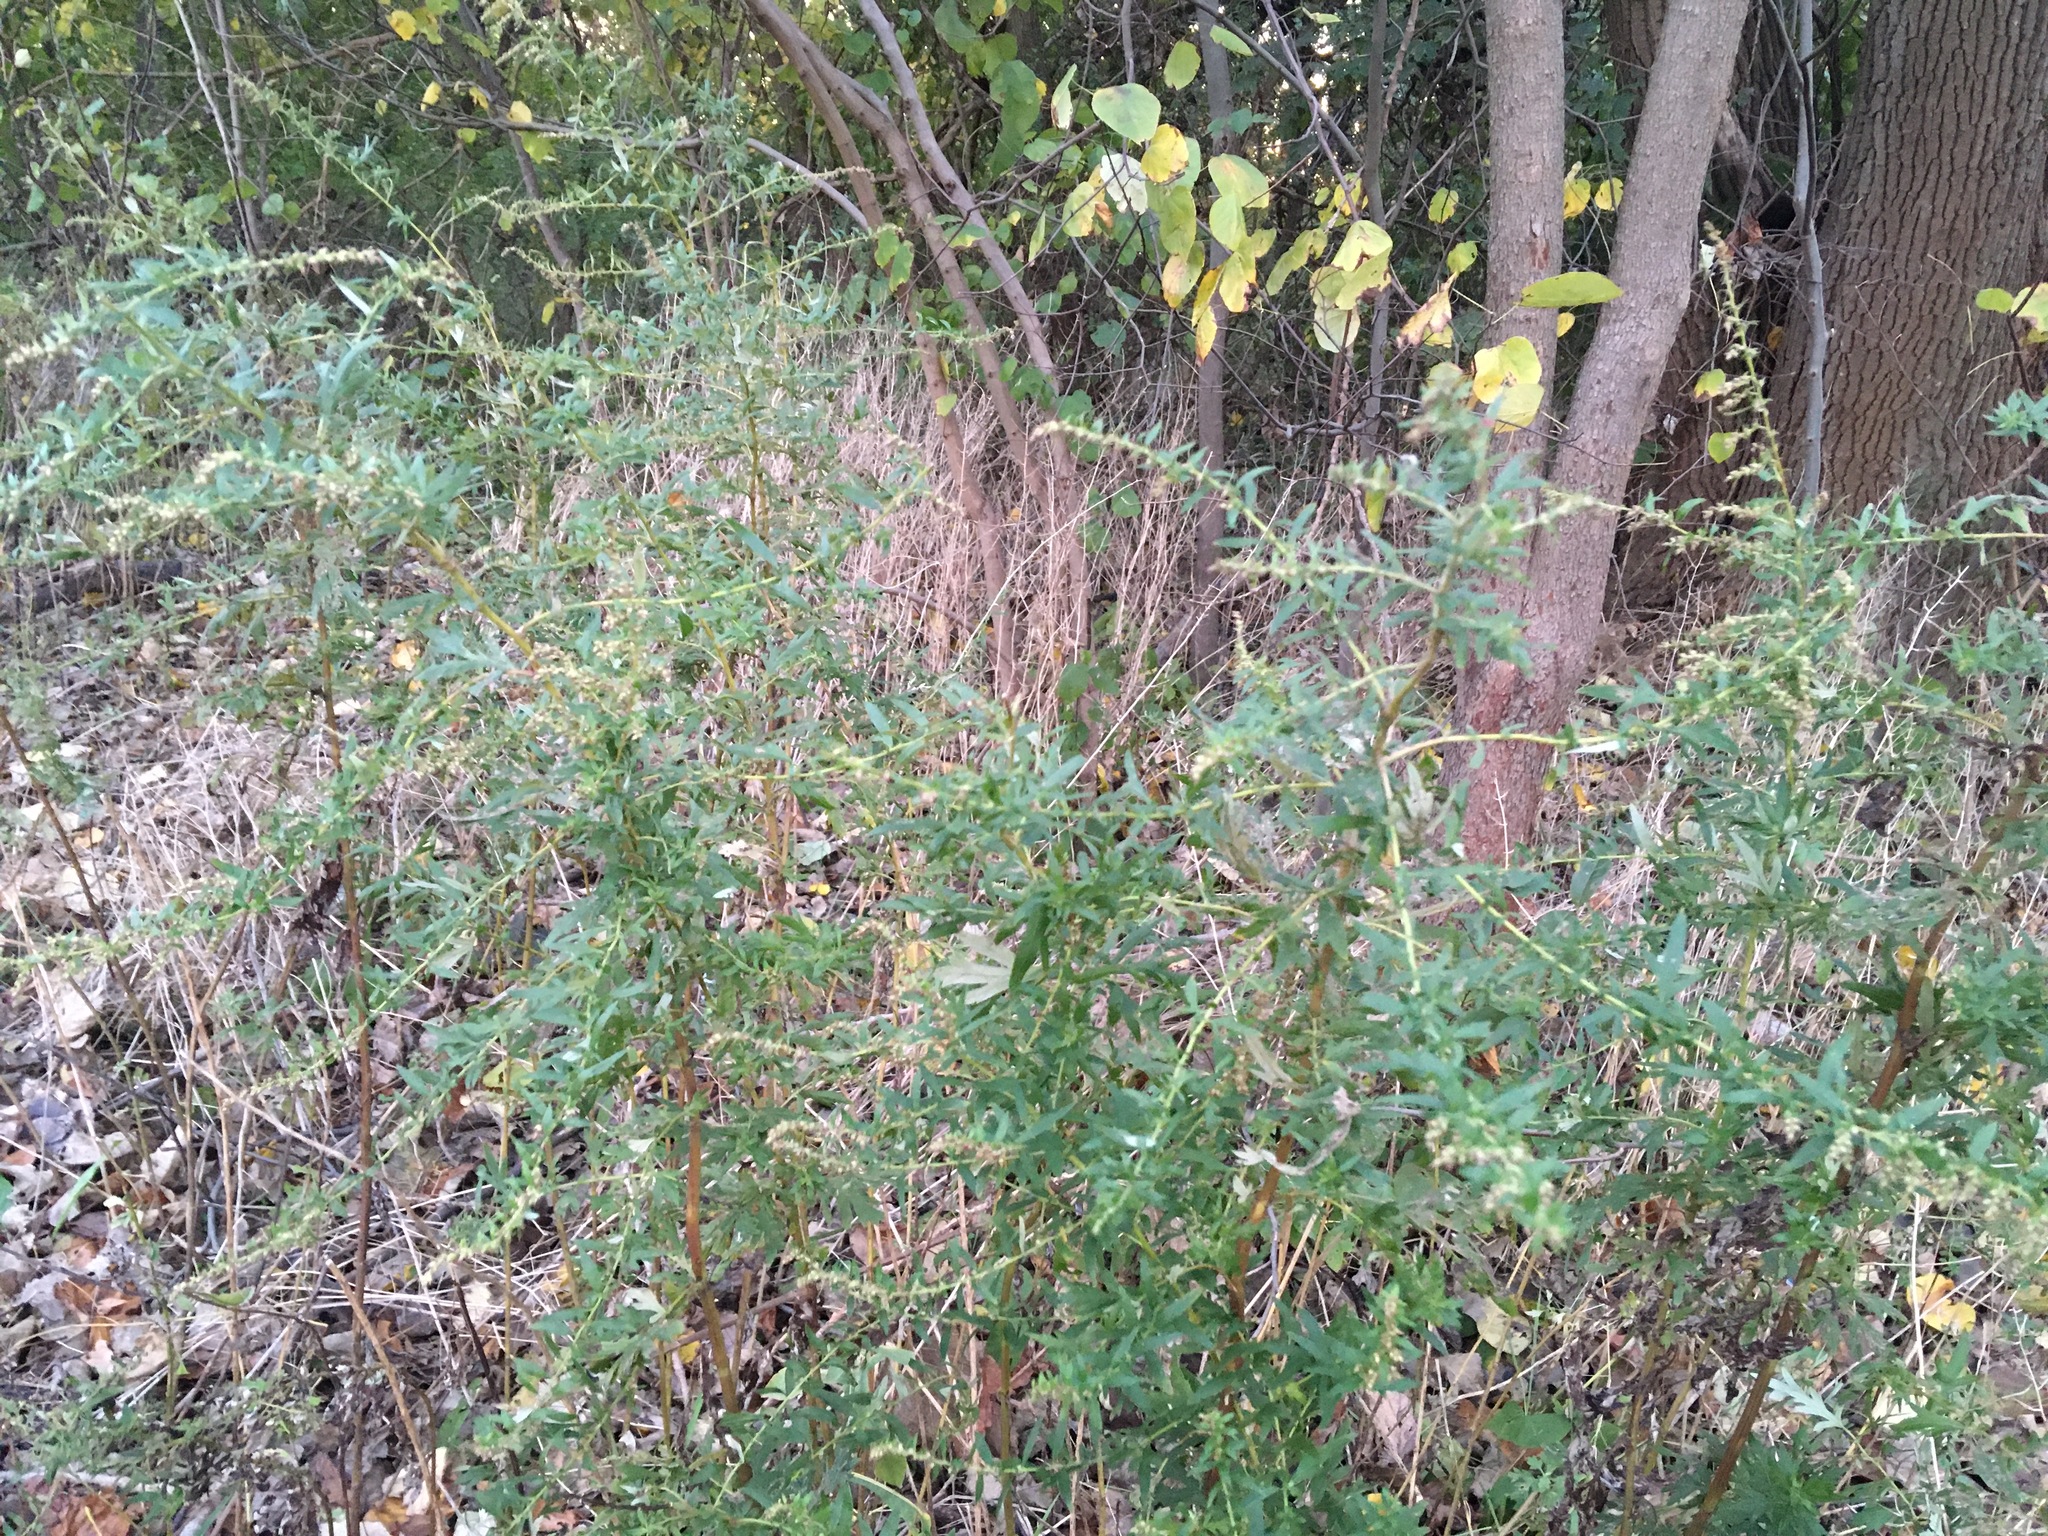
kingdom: Plantae
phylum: Tracheophyta
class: Magnoliopsida
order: Asterales
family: Asteraceae
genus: Artemisia
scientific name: Artemisia vulgaris
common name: Mugwort
